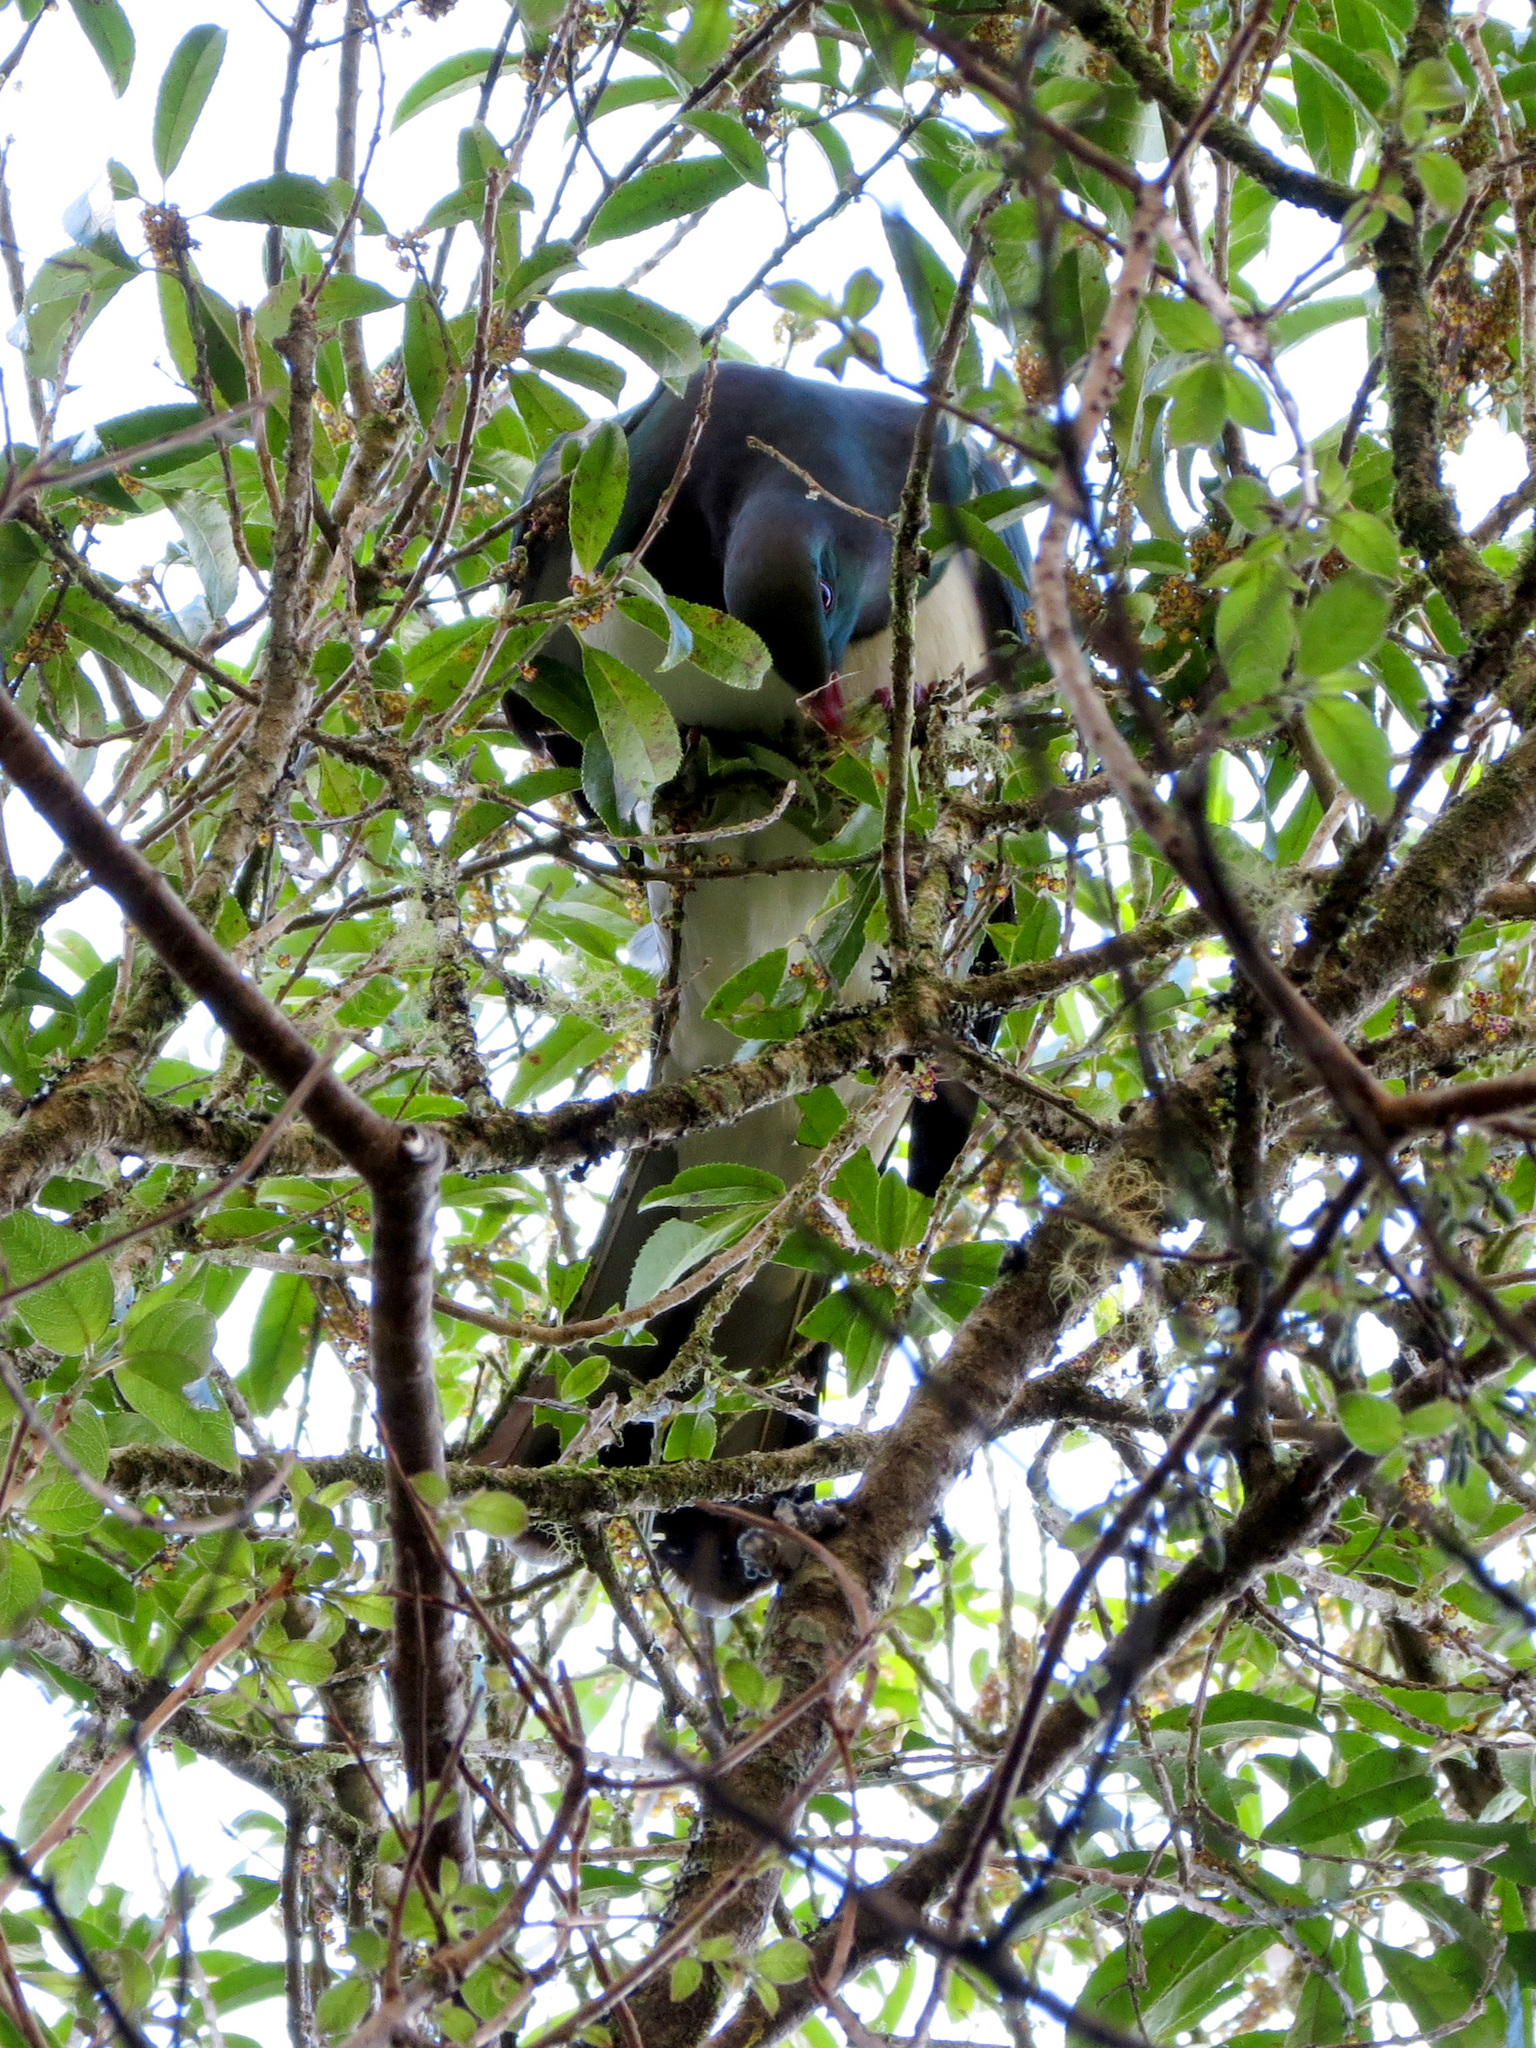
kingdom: Animalia
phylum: Chordata
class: Aves
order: Columbiformes
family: Columbidae
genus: Hemiphaga
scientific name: Hemiphaga novaeseelandiae
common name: New zealand pigeon
